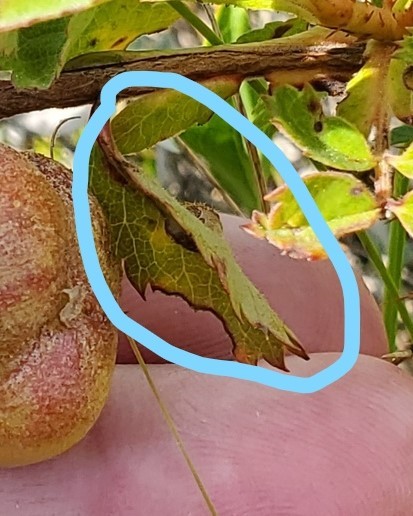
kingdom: Animalia
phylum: Arthropoda
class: Insecta
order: Hymenoptera
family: Cynipidae
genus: Diplolepis
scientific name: Diplolepis rosaefolii
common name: Blister-gall wasp
